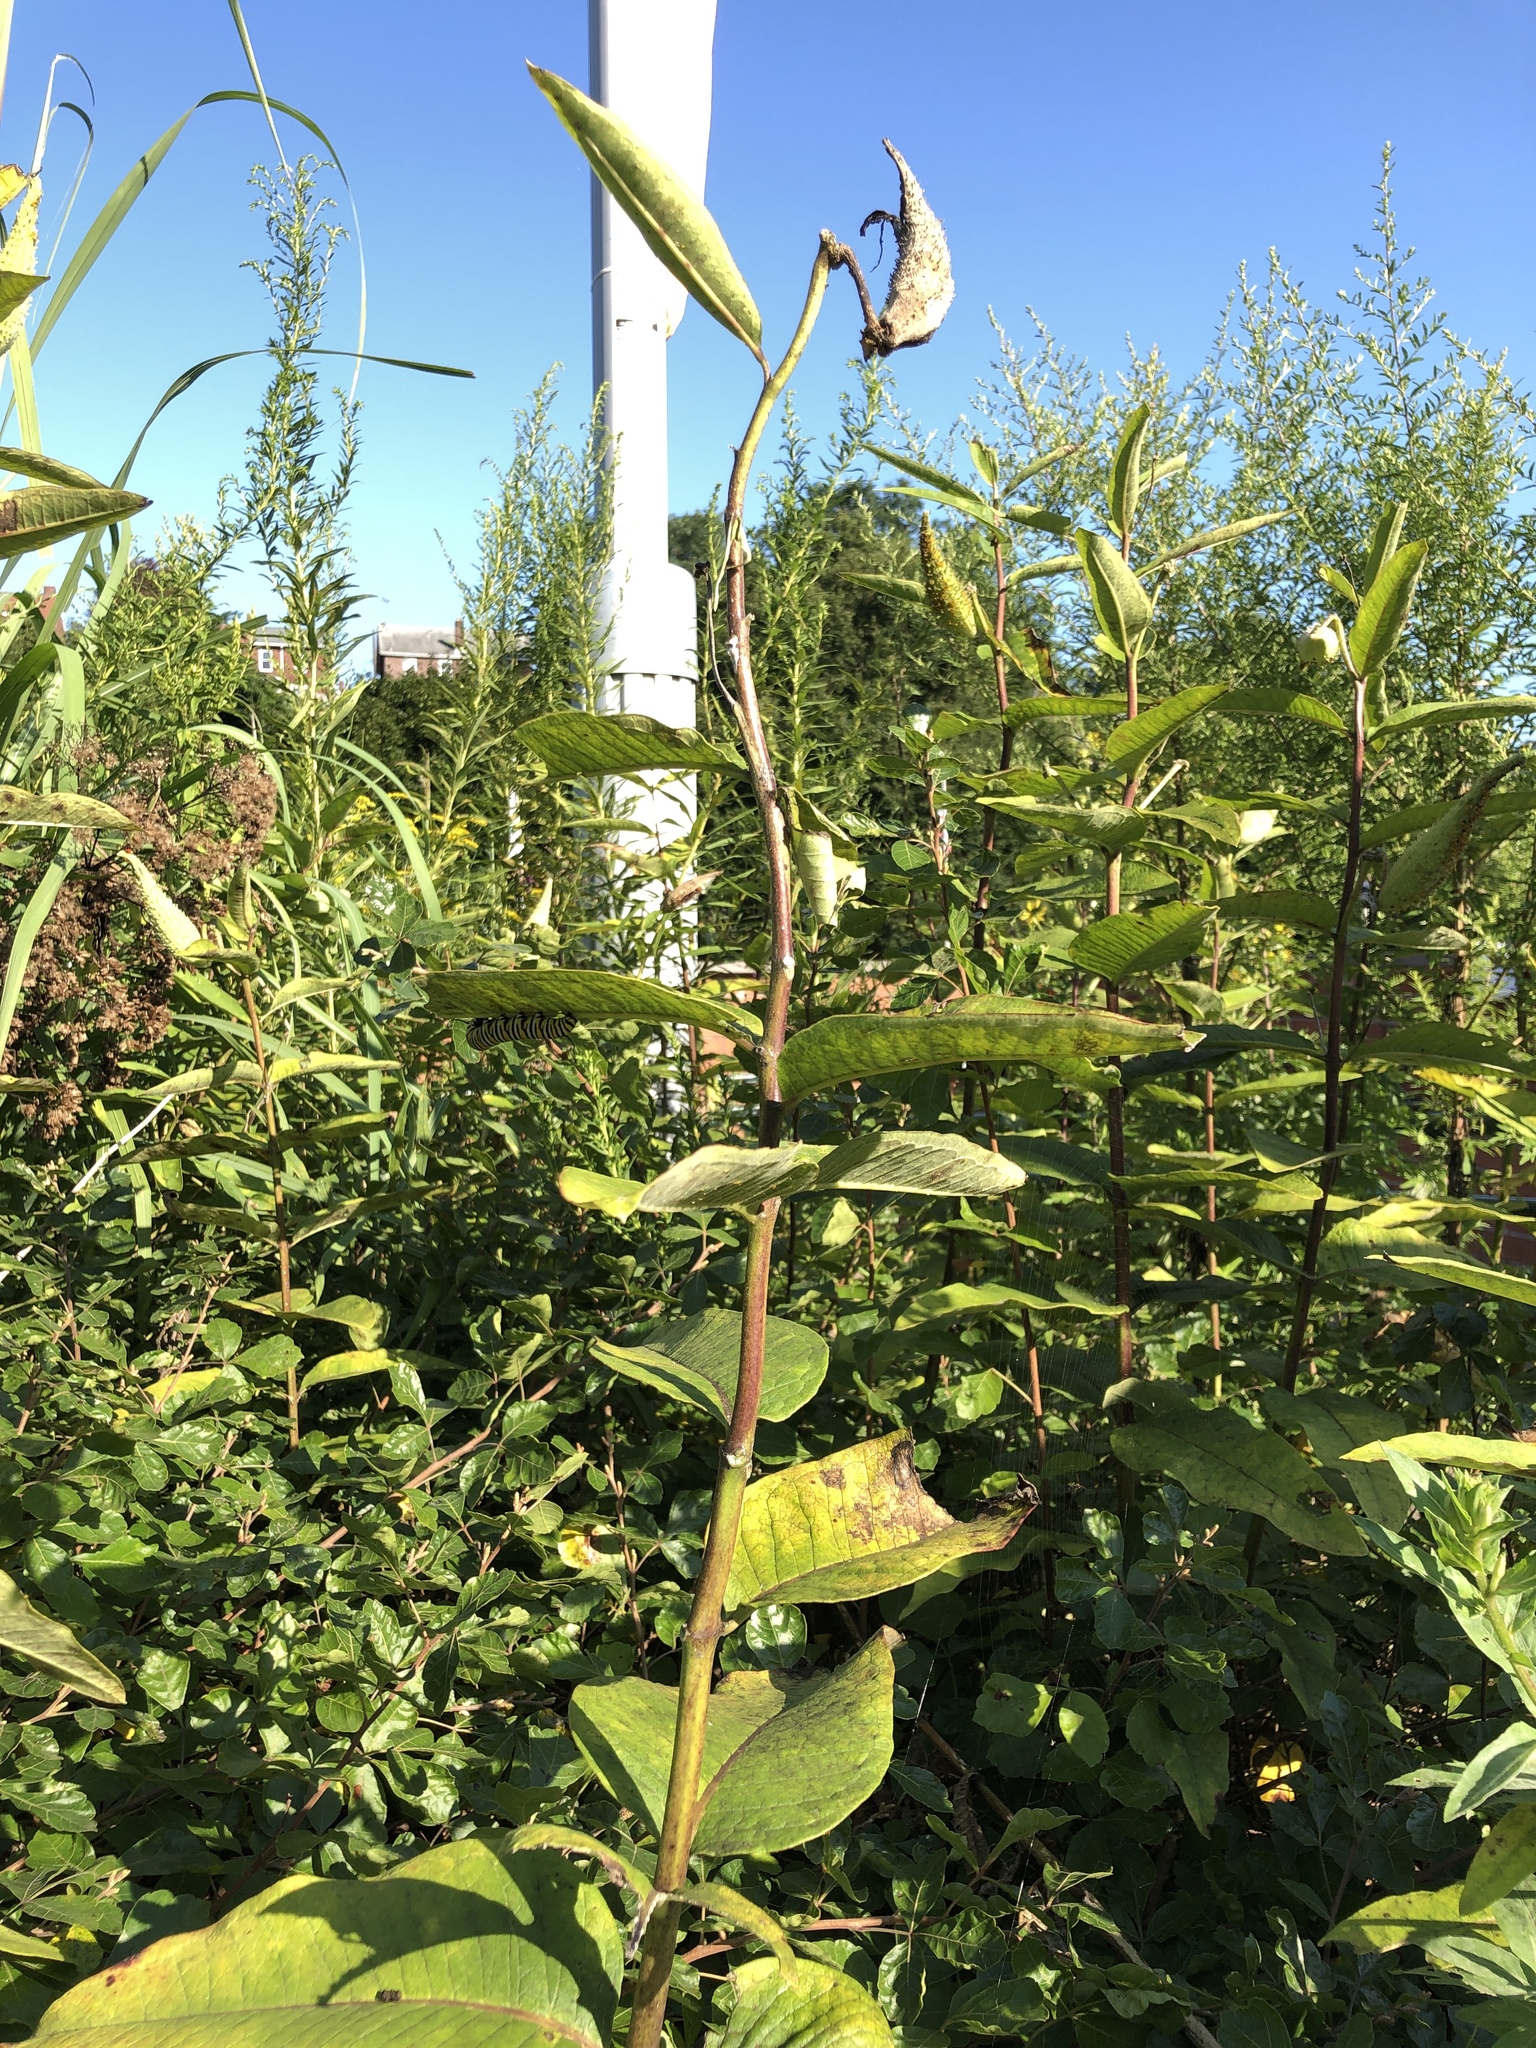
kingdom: Plantae
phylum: Tracheophyta
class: Magnoliopsida
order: Gentianales
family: Apocynaceae
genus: Asclepias
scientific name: Asclepias syriaca
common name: Common milkweed
